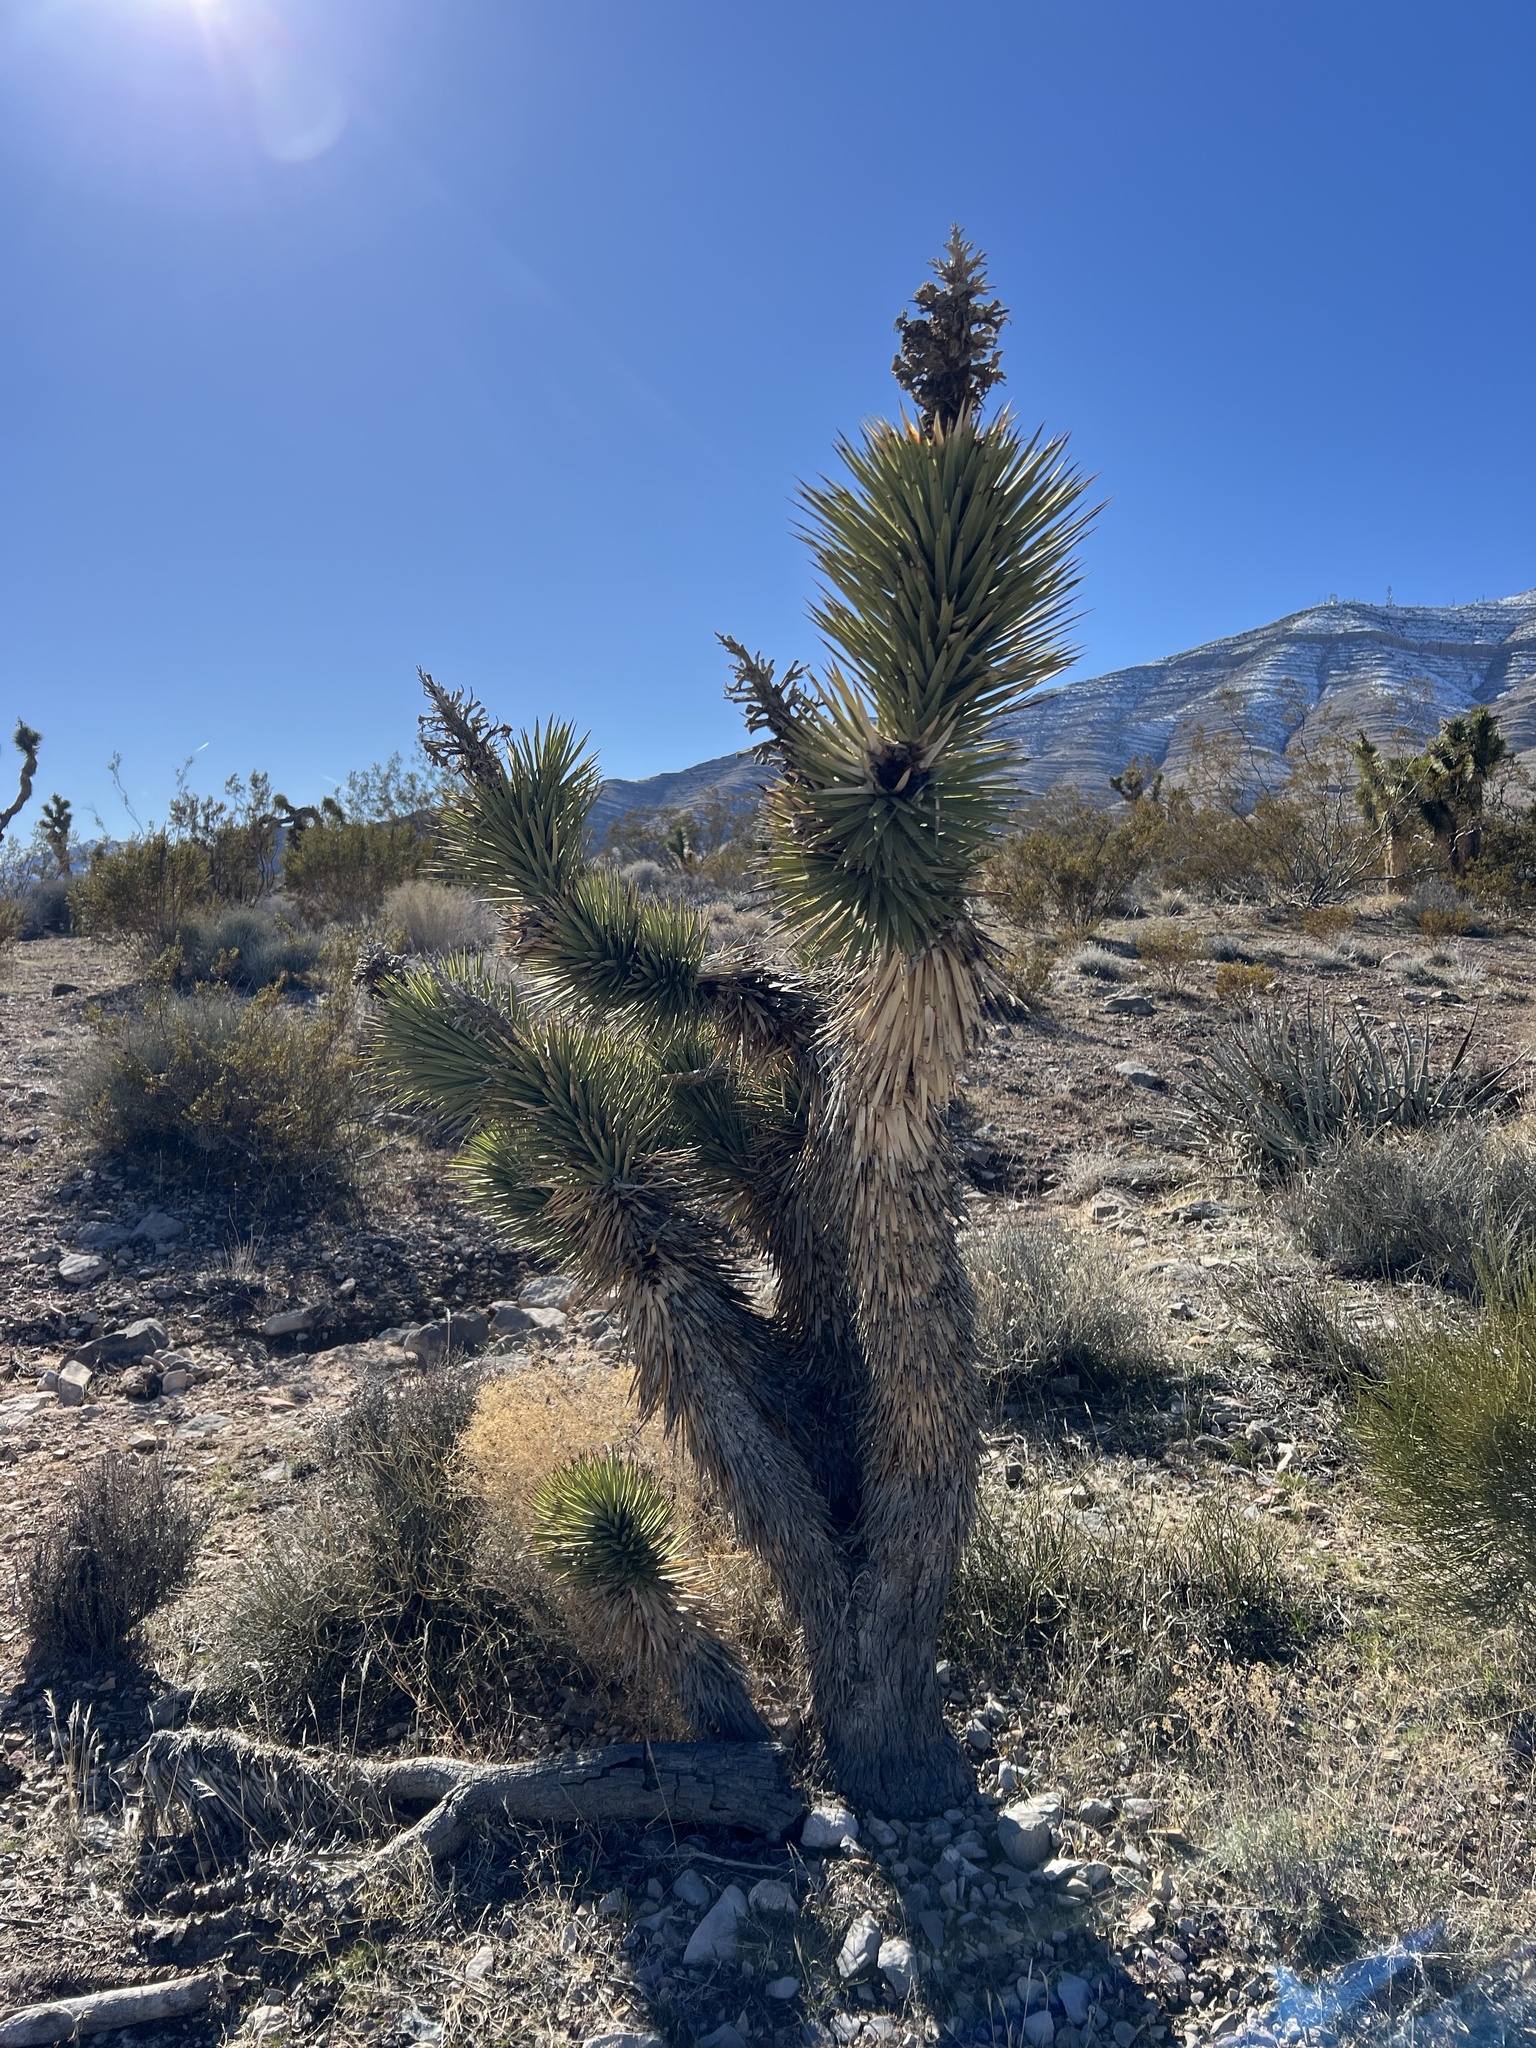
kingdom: Plantae
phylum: Tracheophyta
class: Liliopsida
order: Asparagales
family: Asparagaceae
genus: Yucca
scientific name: Yucca brevifolia
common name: Joshua tree
